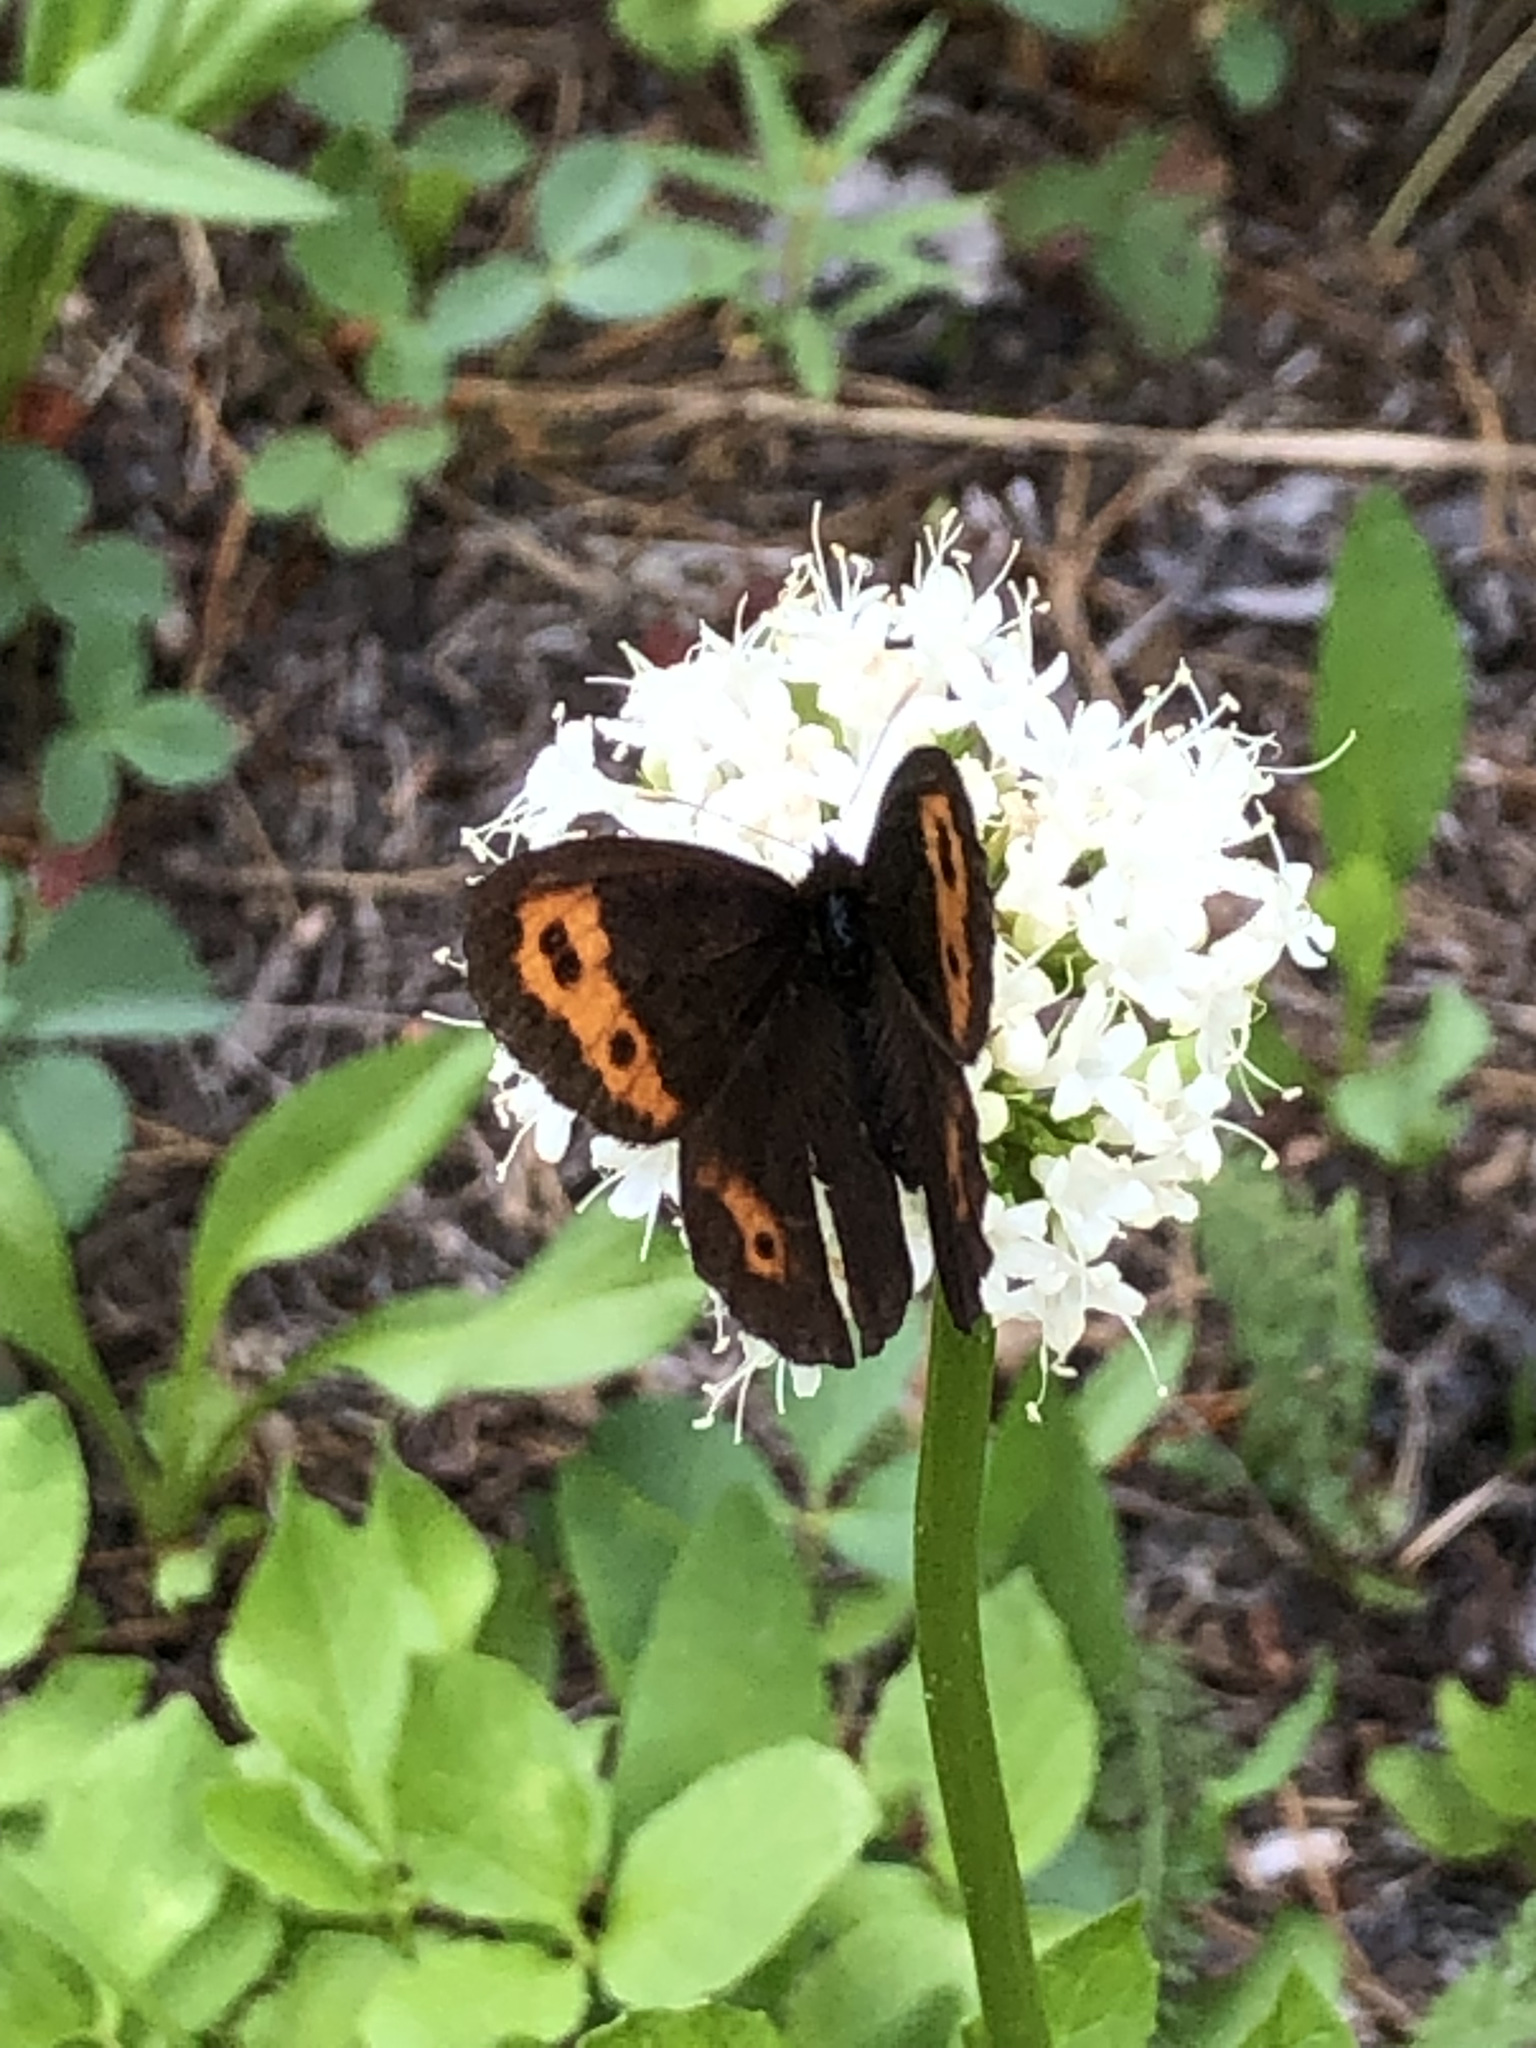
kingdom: Animalia
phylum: Arthropoda
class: Insecta
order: Lepidoptera
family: Nymphalidae
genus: Erebia
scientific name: Erebia vidleri
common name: Vidler's alpine
